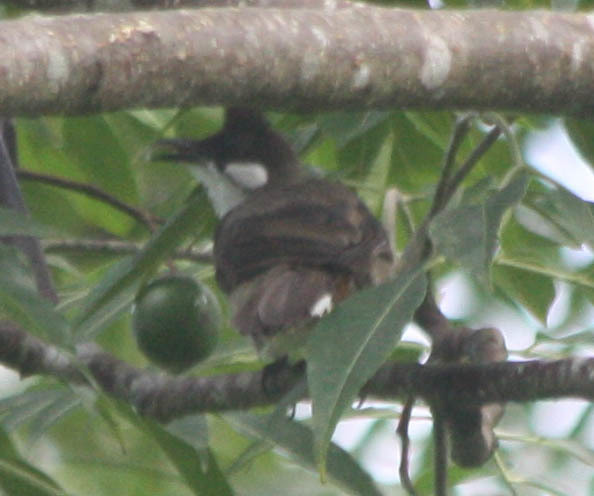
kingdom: Animalia
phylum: Chordata
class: Aves
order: Passeriformes
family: Pycnonotidae
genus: Pycnonotus
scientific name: Pycnonotus jocosus
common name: Red-whiskered bulbul
